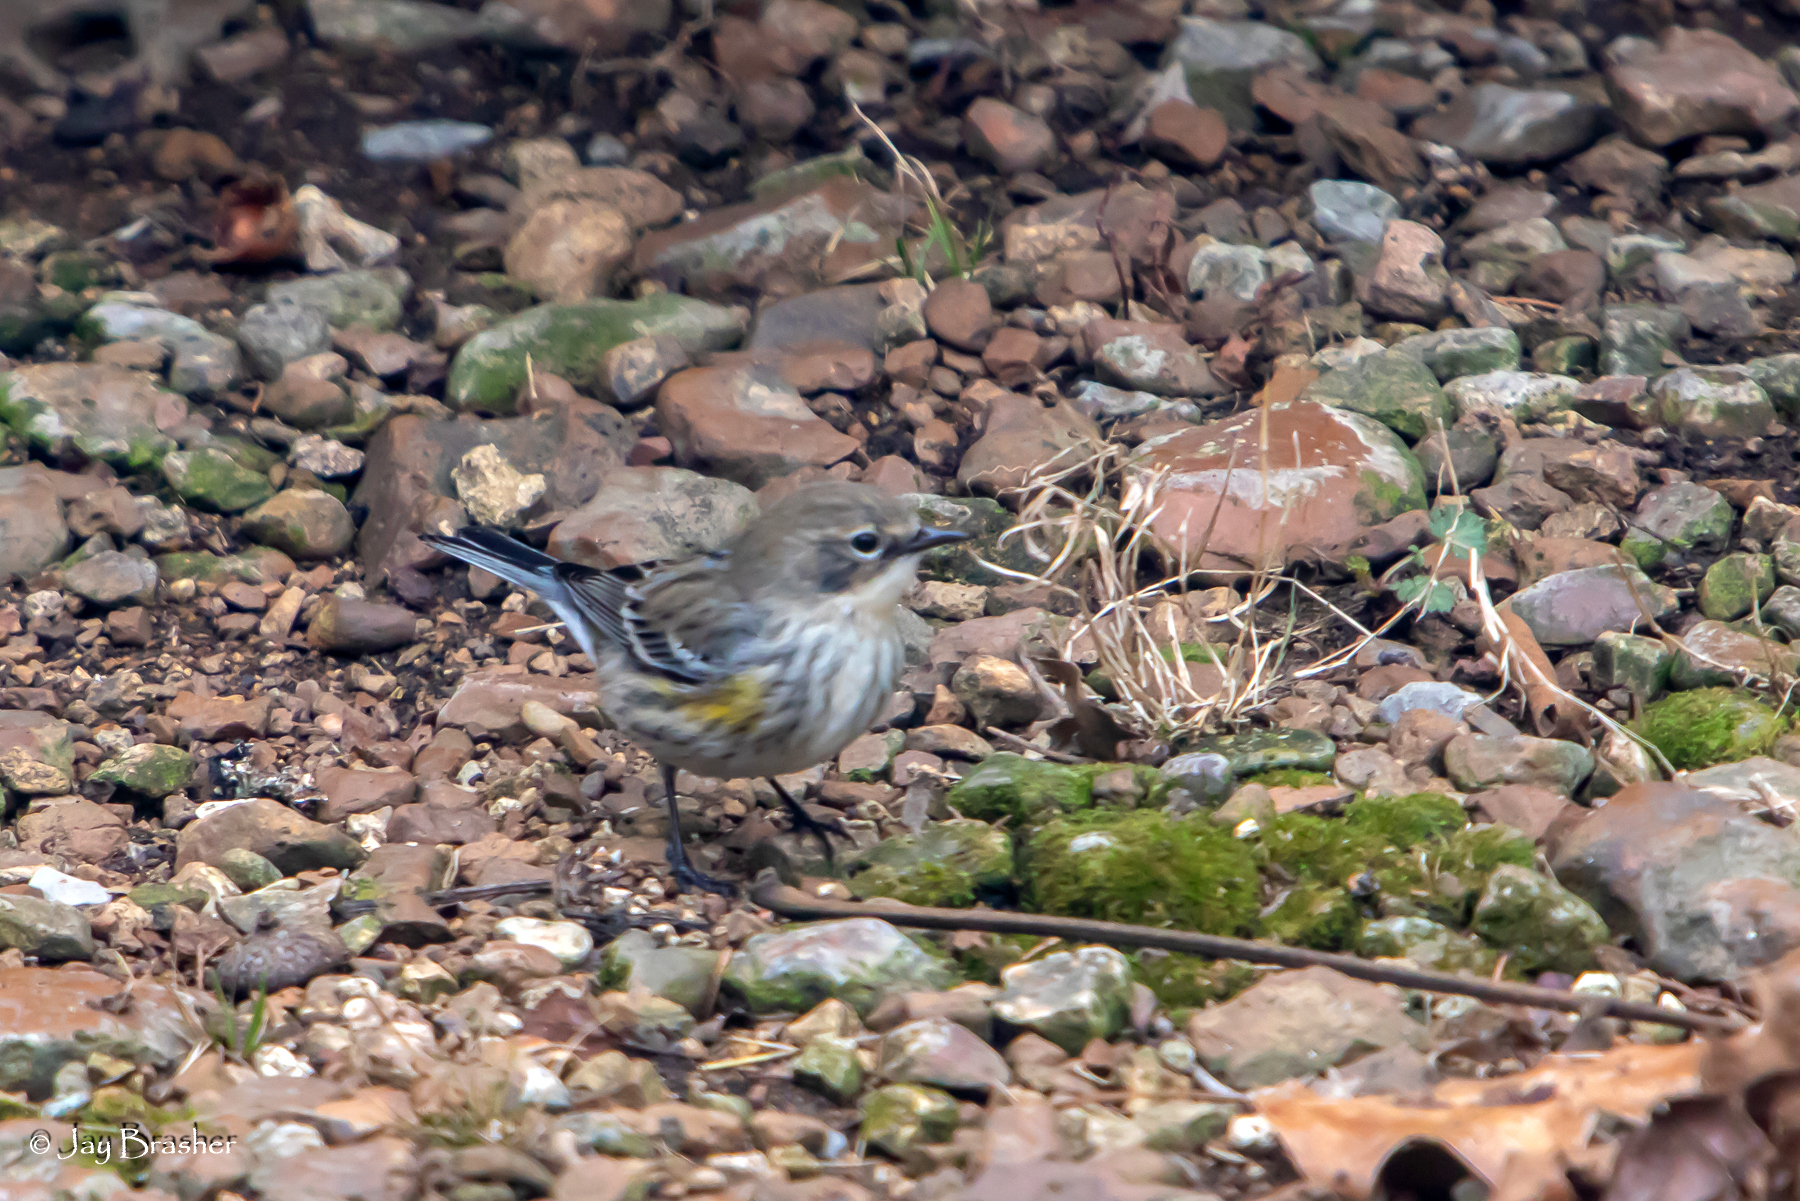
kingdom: Animalia
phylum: Chordata
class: Aves
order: Passeriformes
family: Parulidae
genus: Setophaga
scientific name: Setophaga coronata
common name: Myrtle warbler
